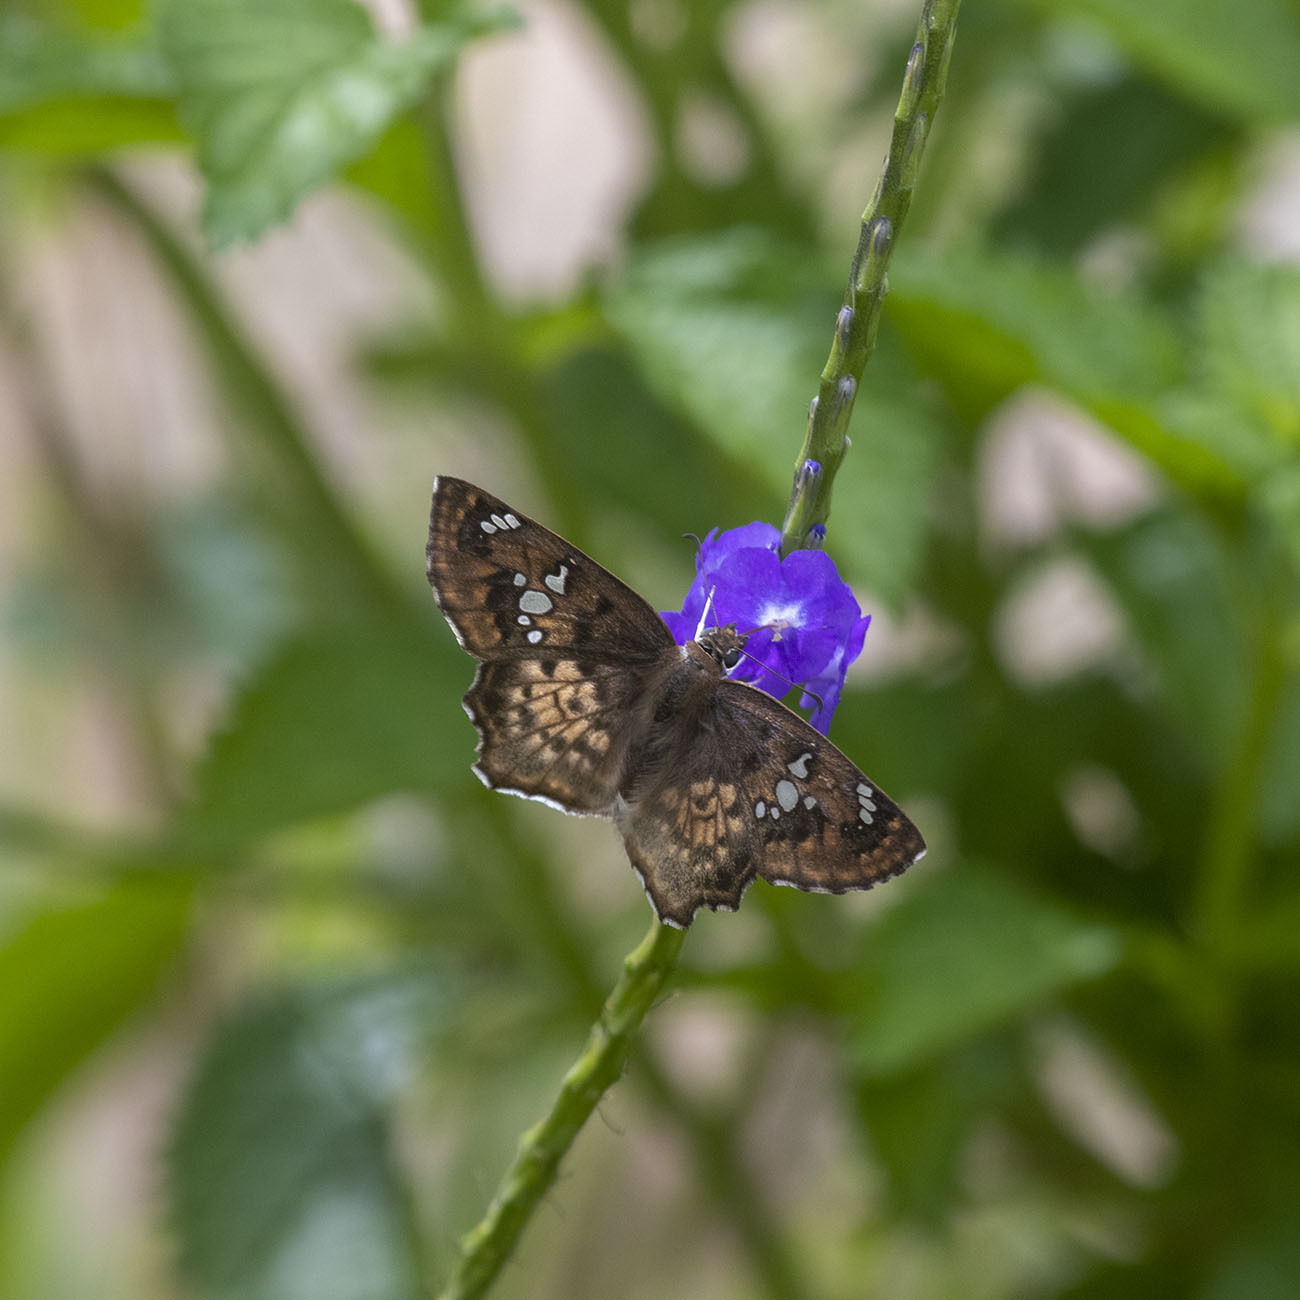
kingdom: Animalia
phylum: Arthropoda
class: Insecta
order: Lepidoptera
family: Hesperiidae
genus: Caprona
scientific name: Caprona ransonnettii
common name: Golden angle
